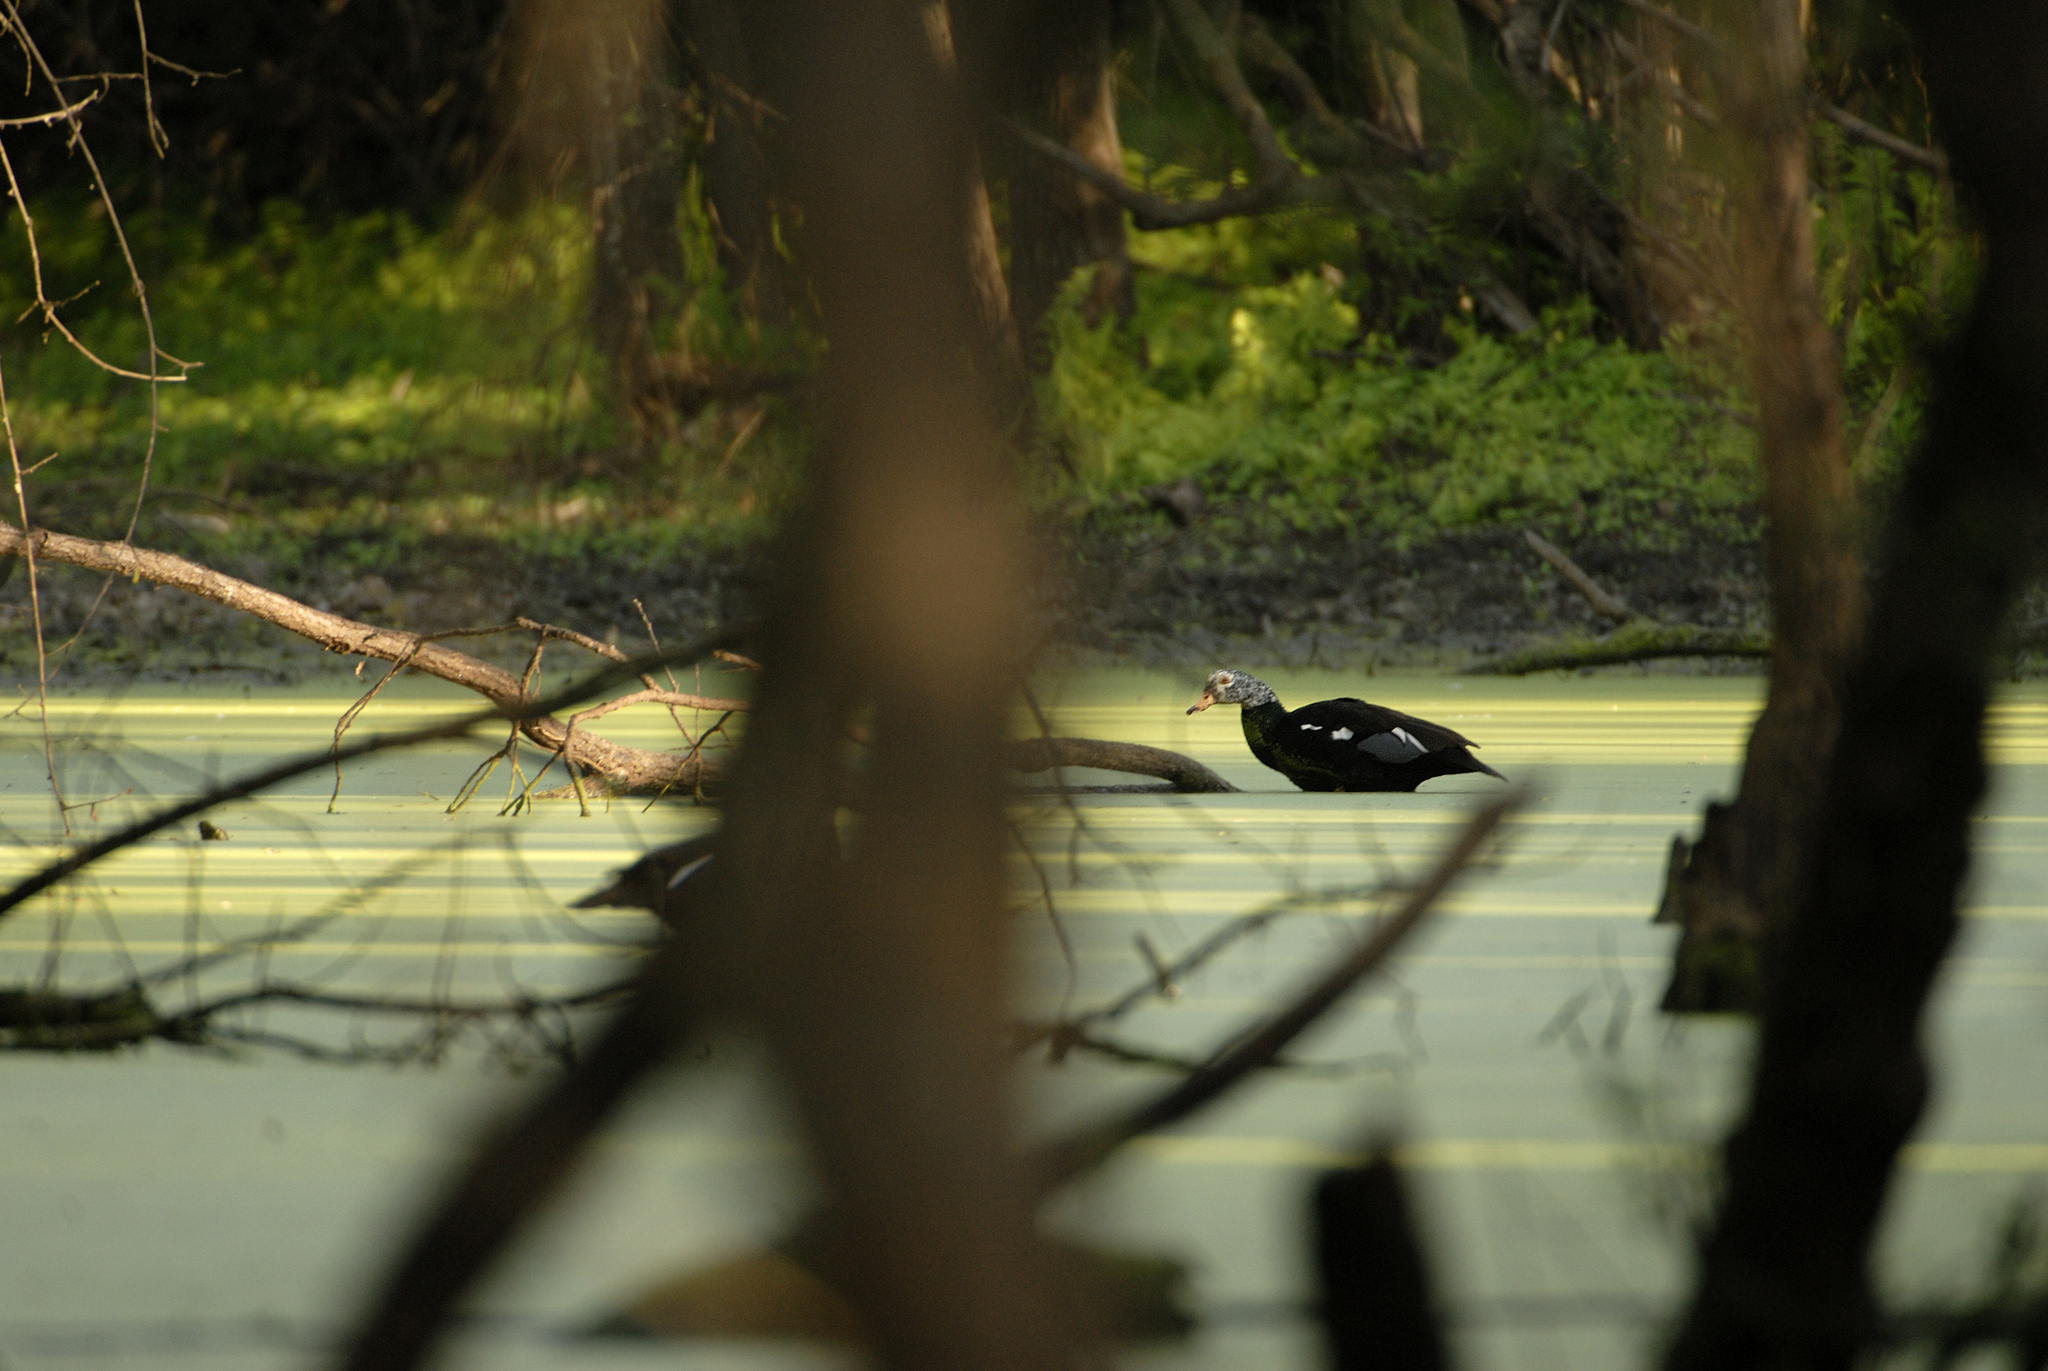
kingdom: Animalia
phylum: Chordata
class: Aves
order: Anseriformes
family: Anatidae
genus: Asarcornis
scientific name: Asarcornis scutulata
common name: White-winged duck
